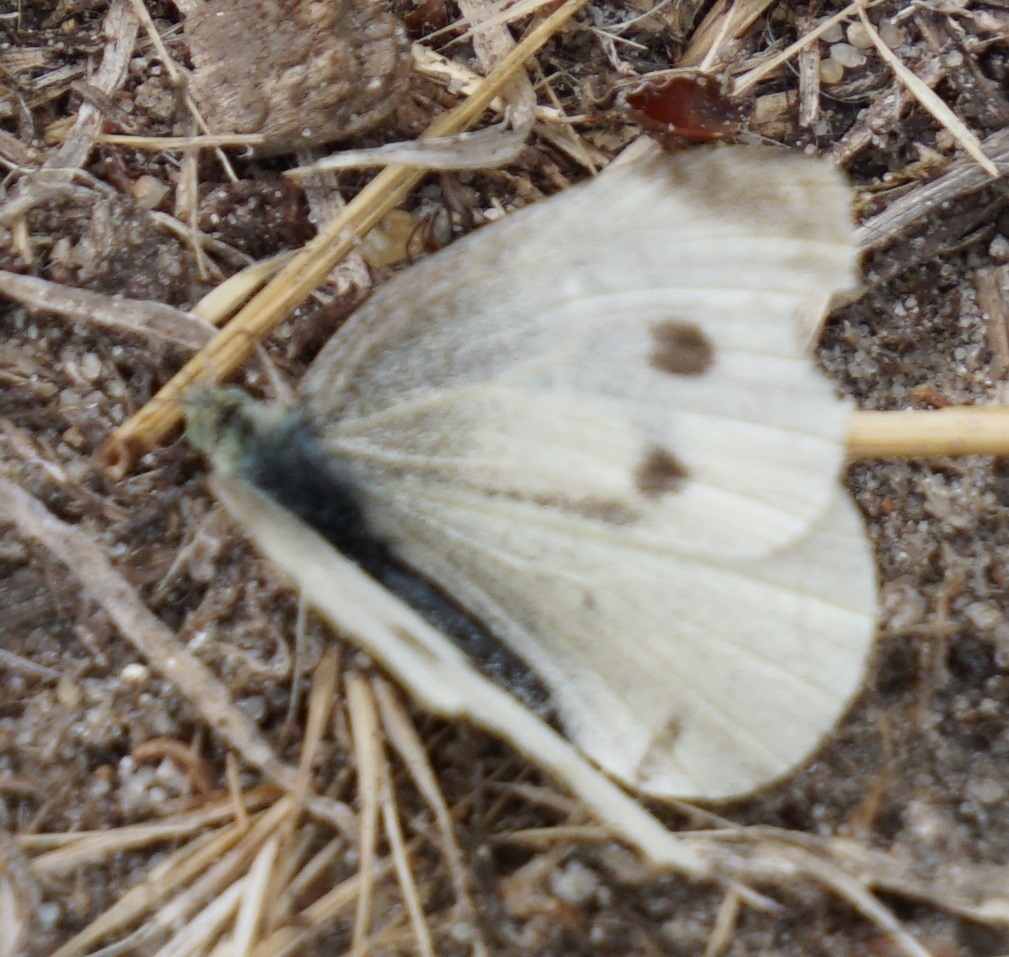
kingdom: Animalia
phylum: Arthropoda
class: Insecta
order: Lepidoptera
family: Pieridae
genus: Pieris
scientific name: Pieris rapae
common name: Small white
